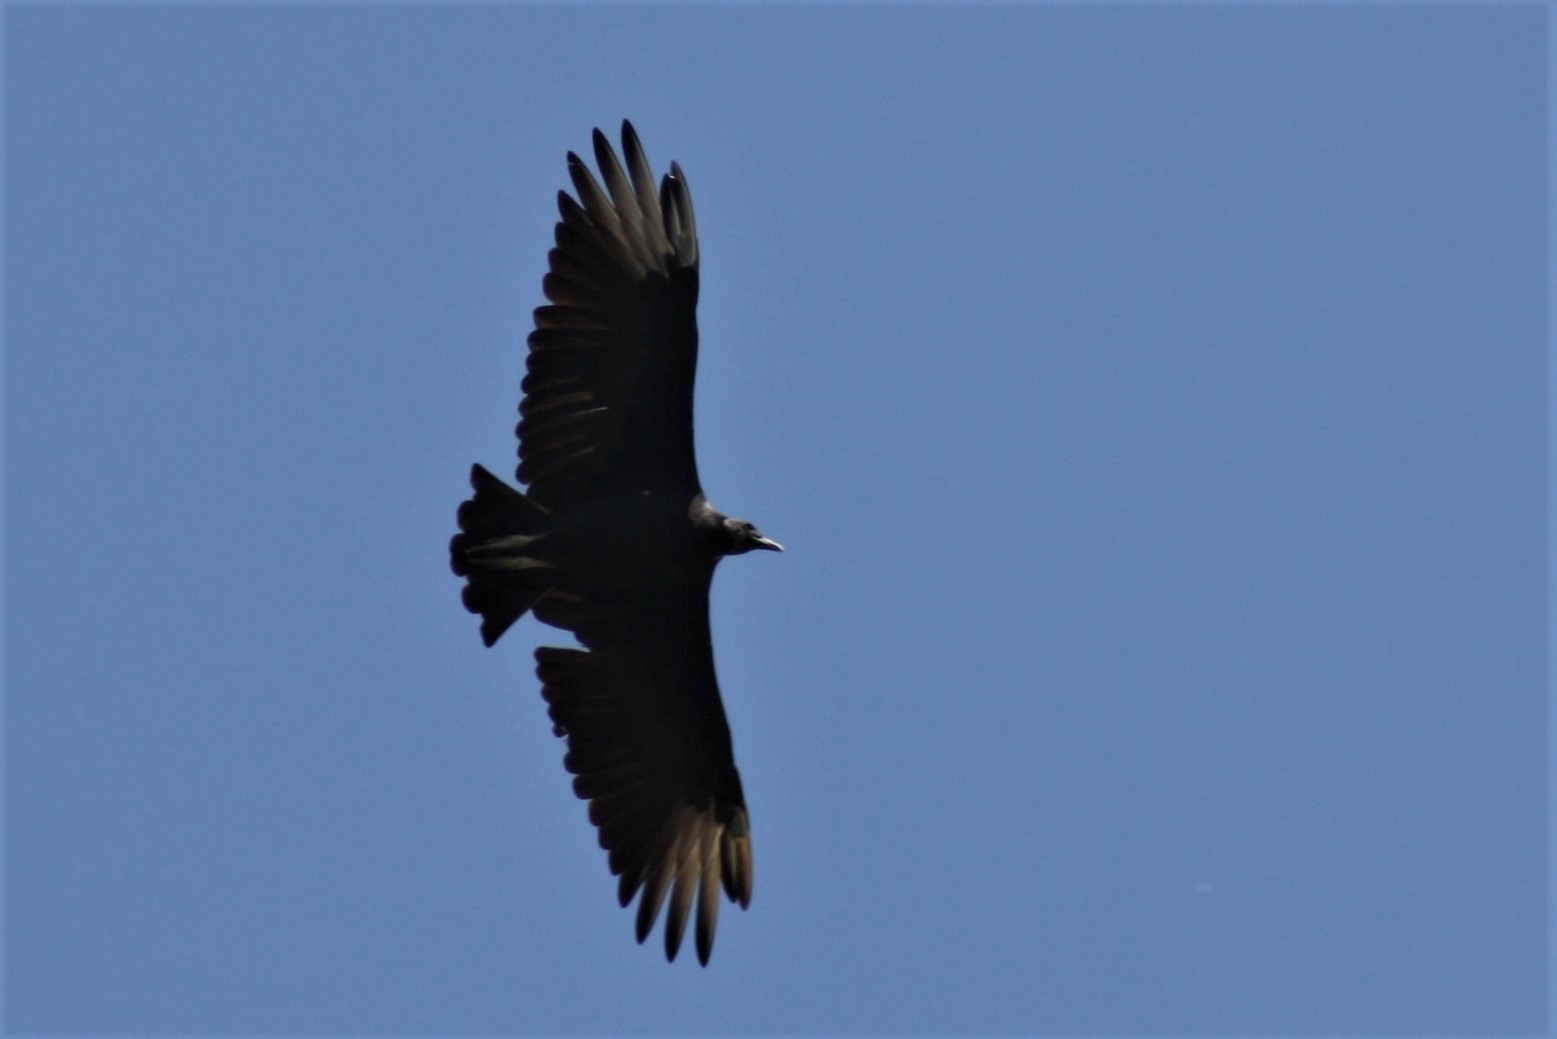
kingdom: Animalia
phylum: Chordata
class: Aves
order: Accipitriformes
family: Cathartidae
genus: Coragyps
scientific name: Coragyps atratus
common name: Black vulture
